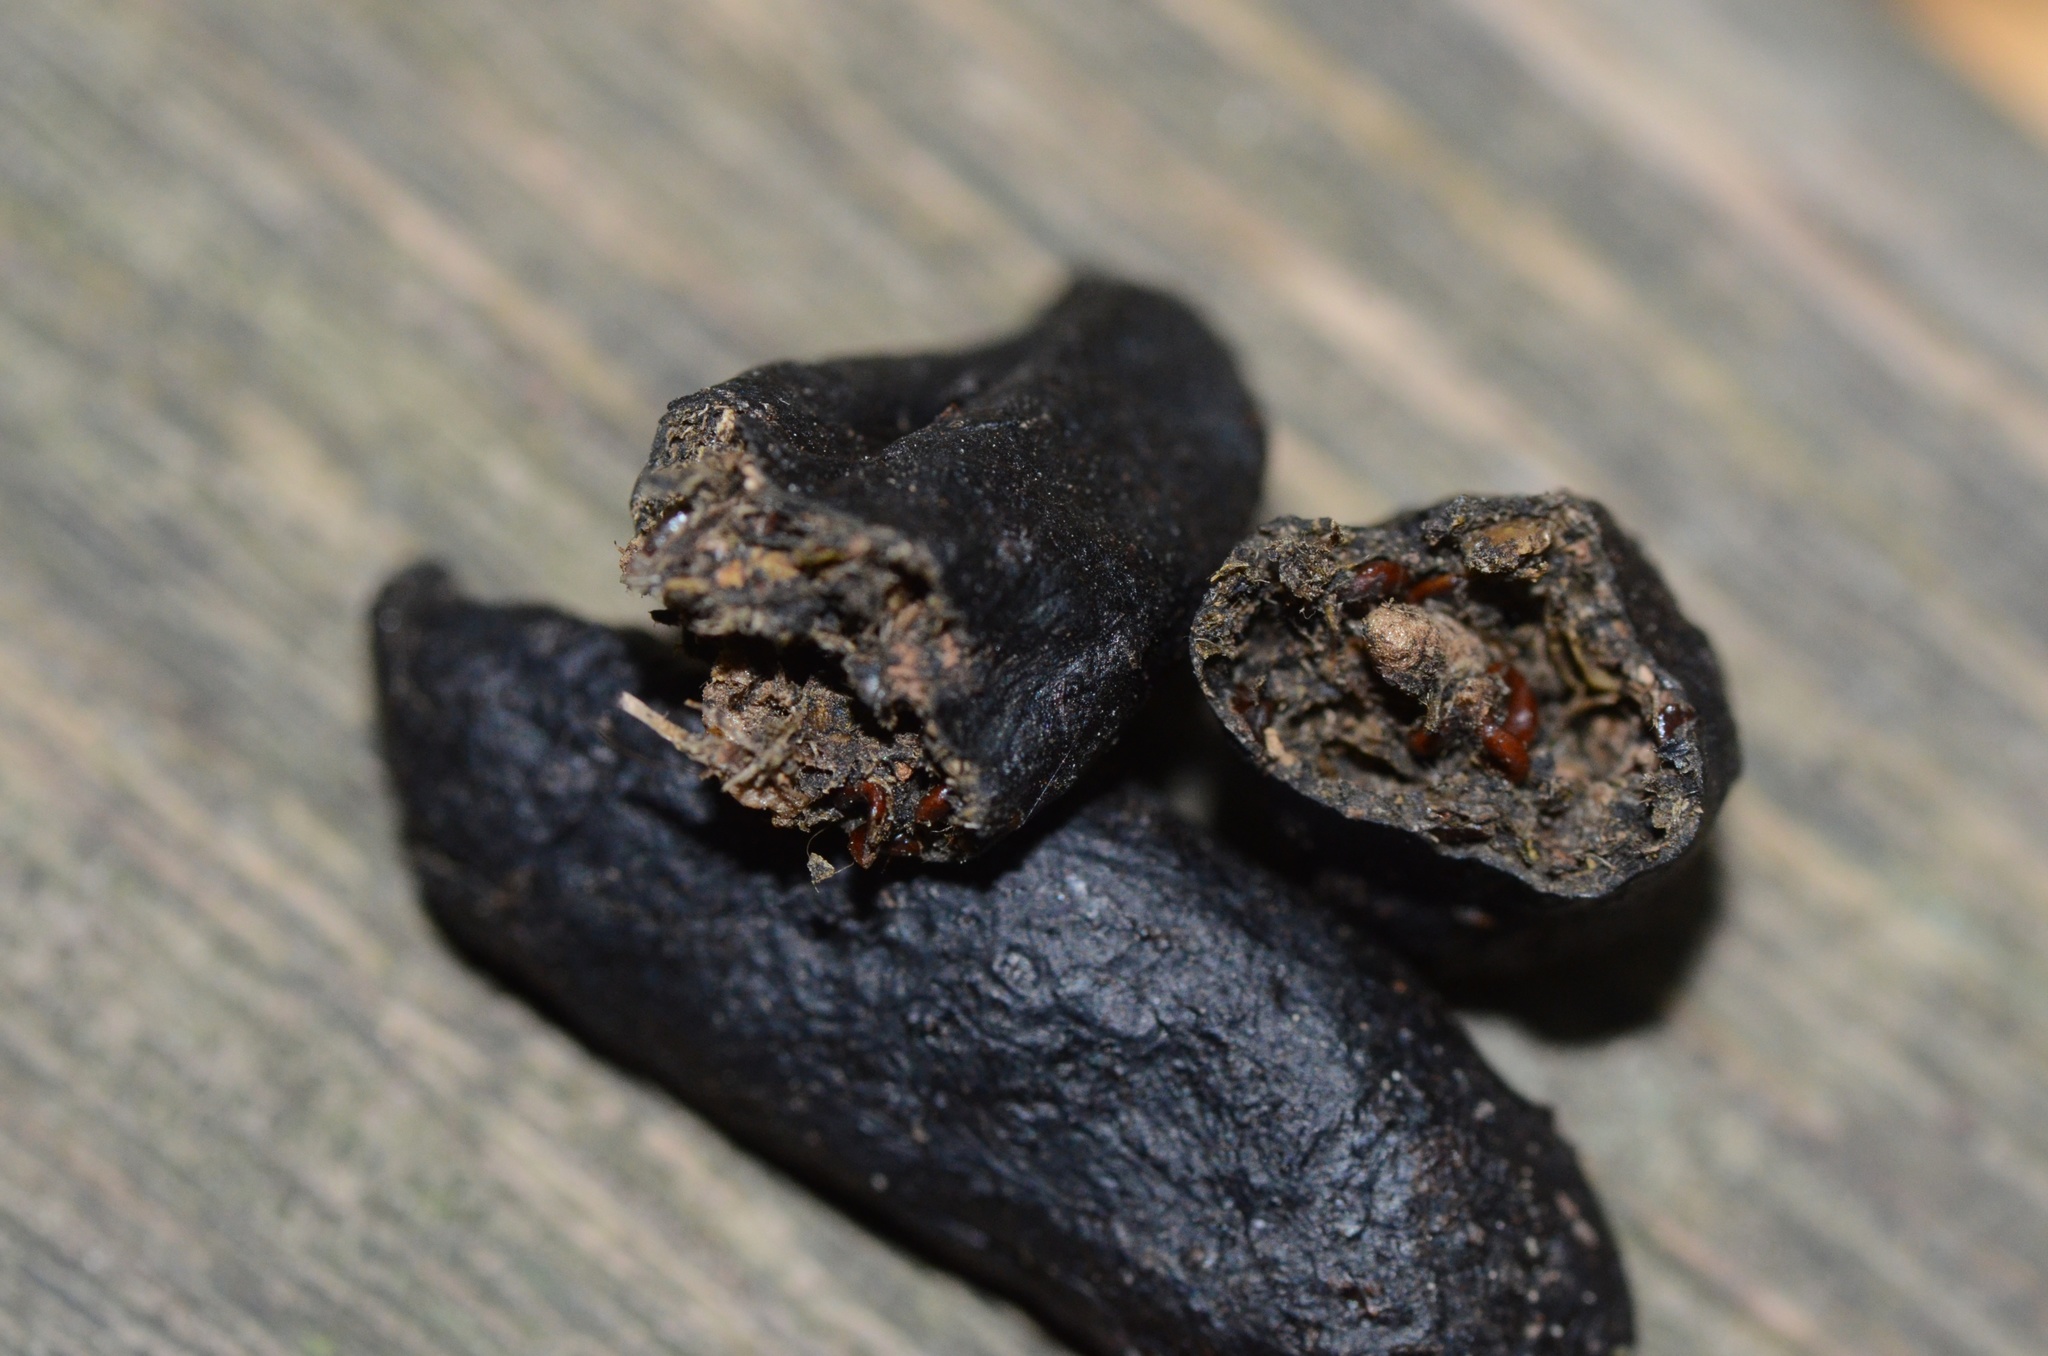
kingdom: Animalia
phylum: Chordata
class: Mammalia
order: Erinaceomorpha
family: Erinaceidae
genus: Erinaceus
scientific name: Erinaceus europaeus
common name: West european hedgehog
